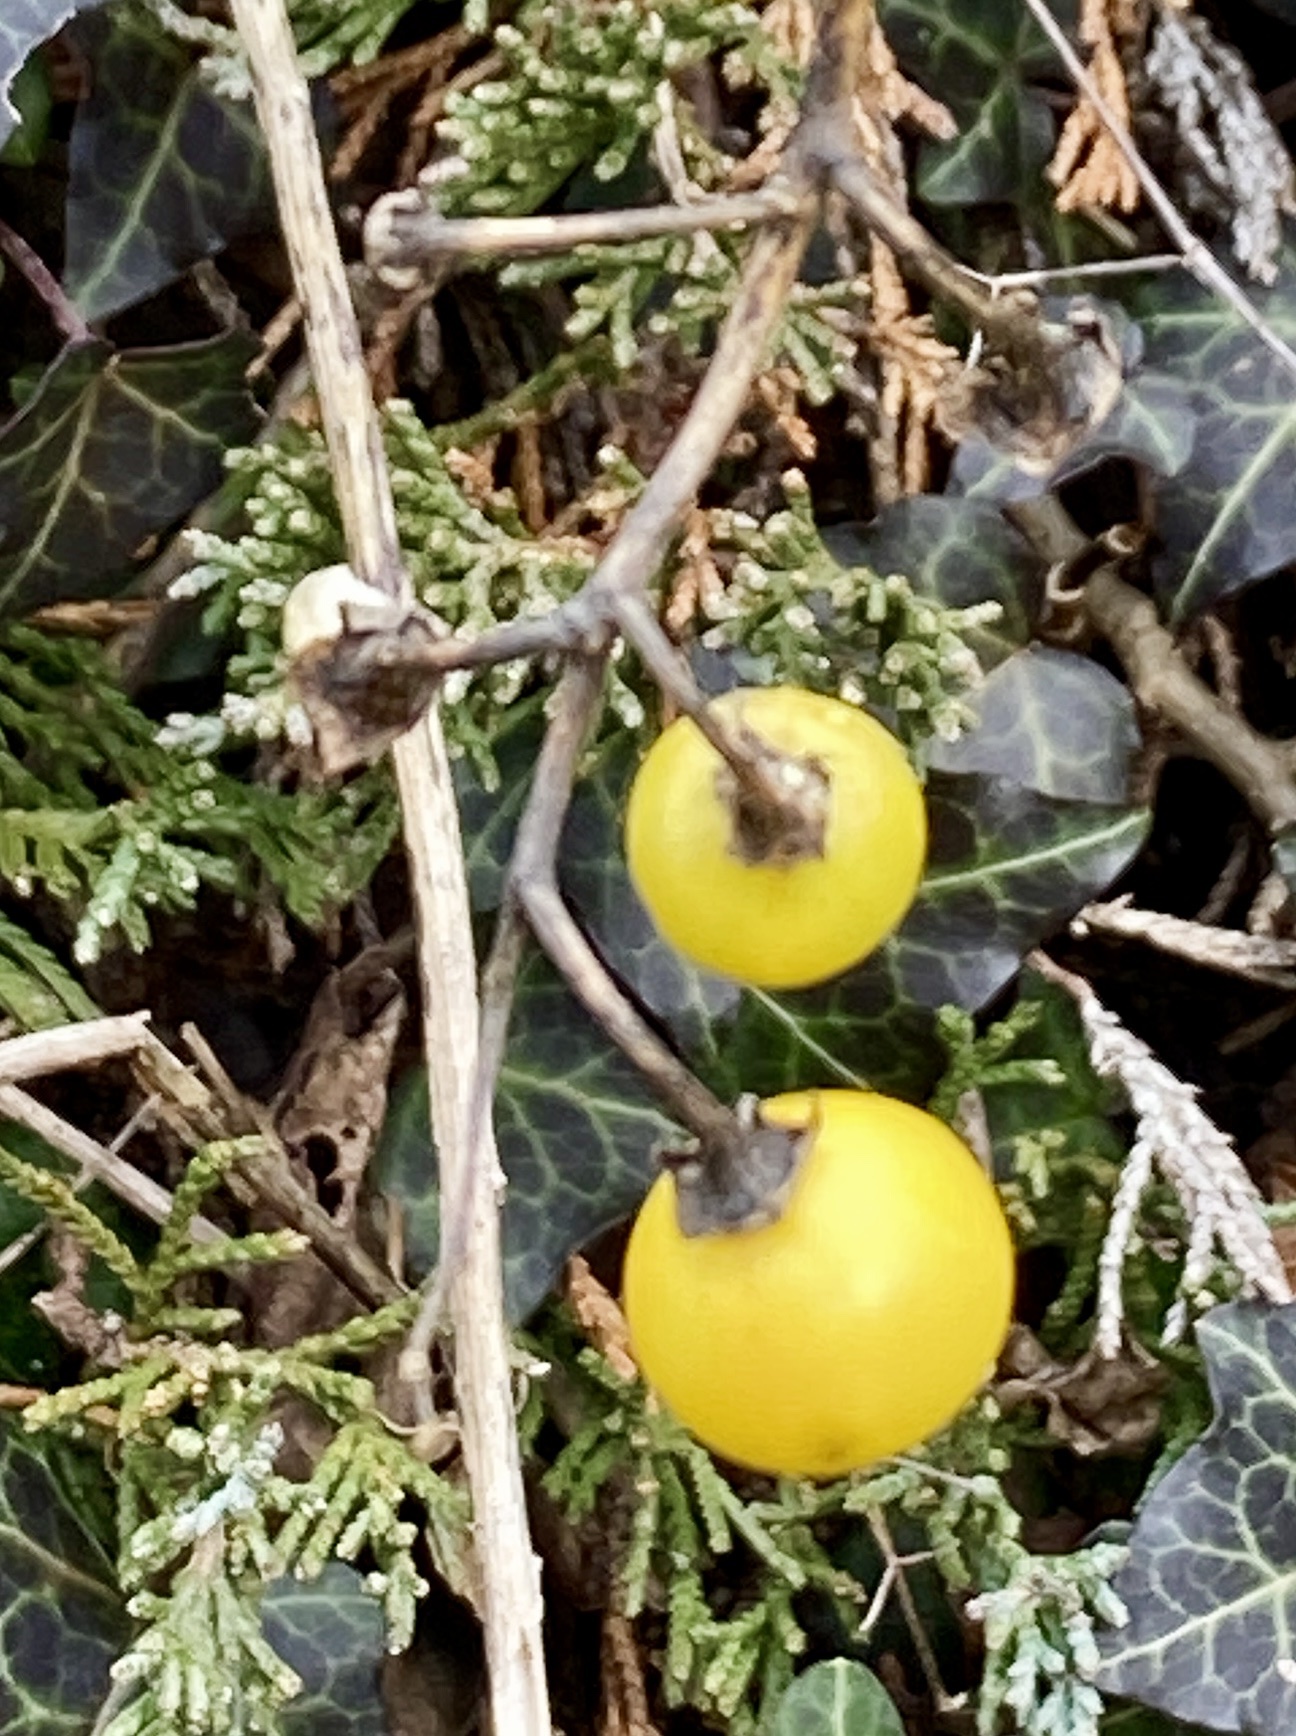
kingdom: Plantae
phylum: Tracheophyta
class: Magnoliopsida
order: Solanales
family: Solanaceae
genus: Solanum
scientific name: Solanum carolinense
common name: Horse-nettle
